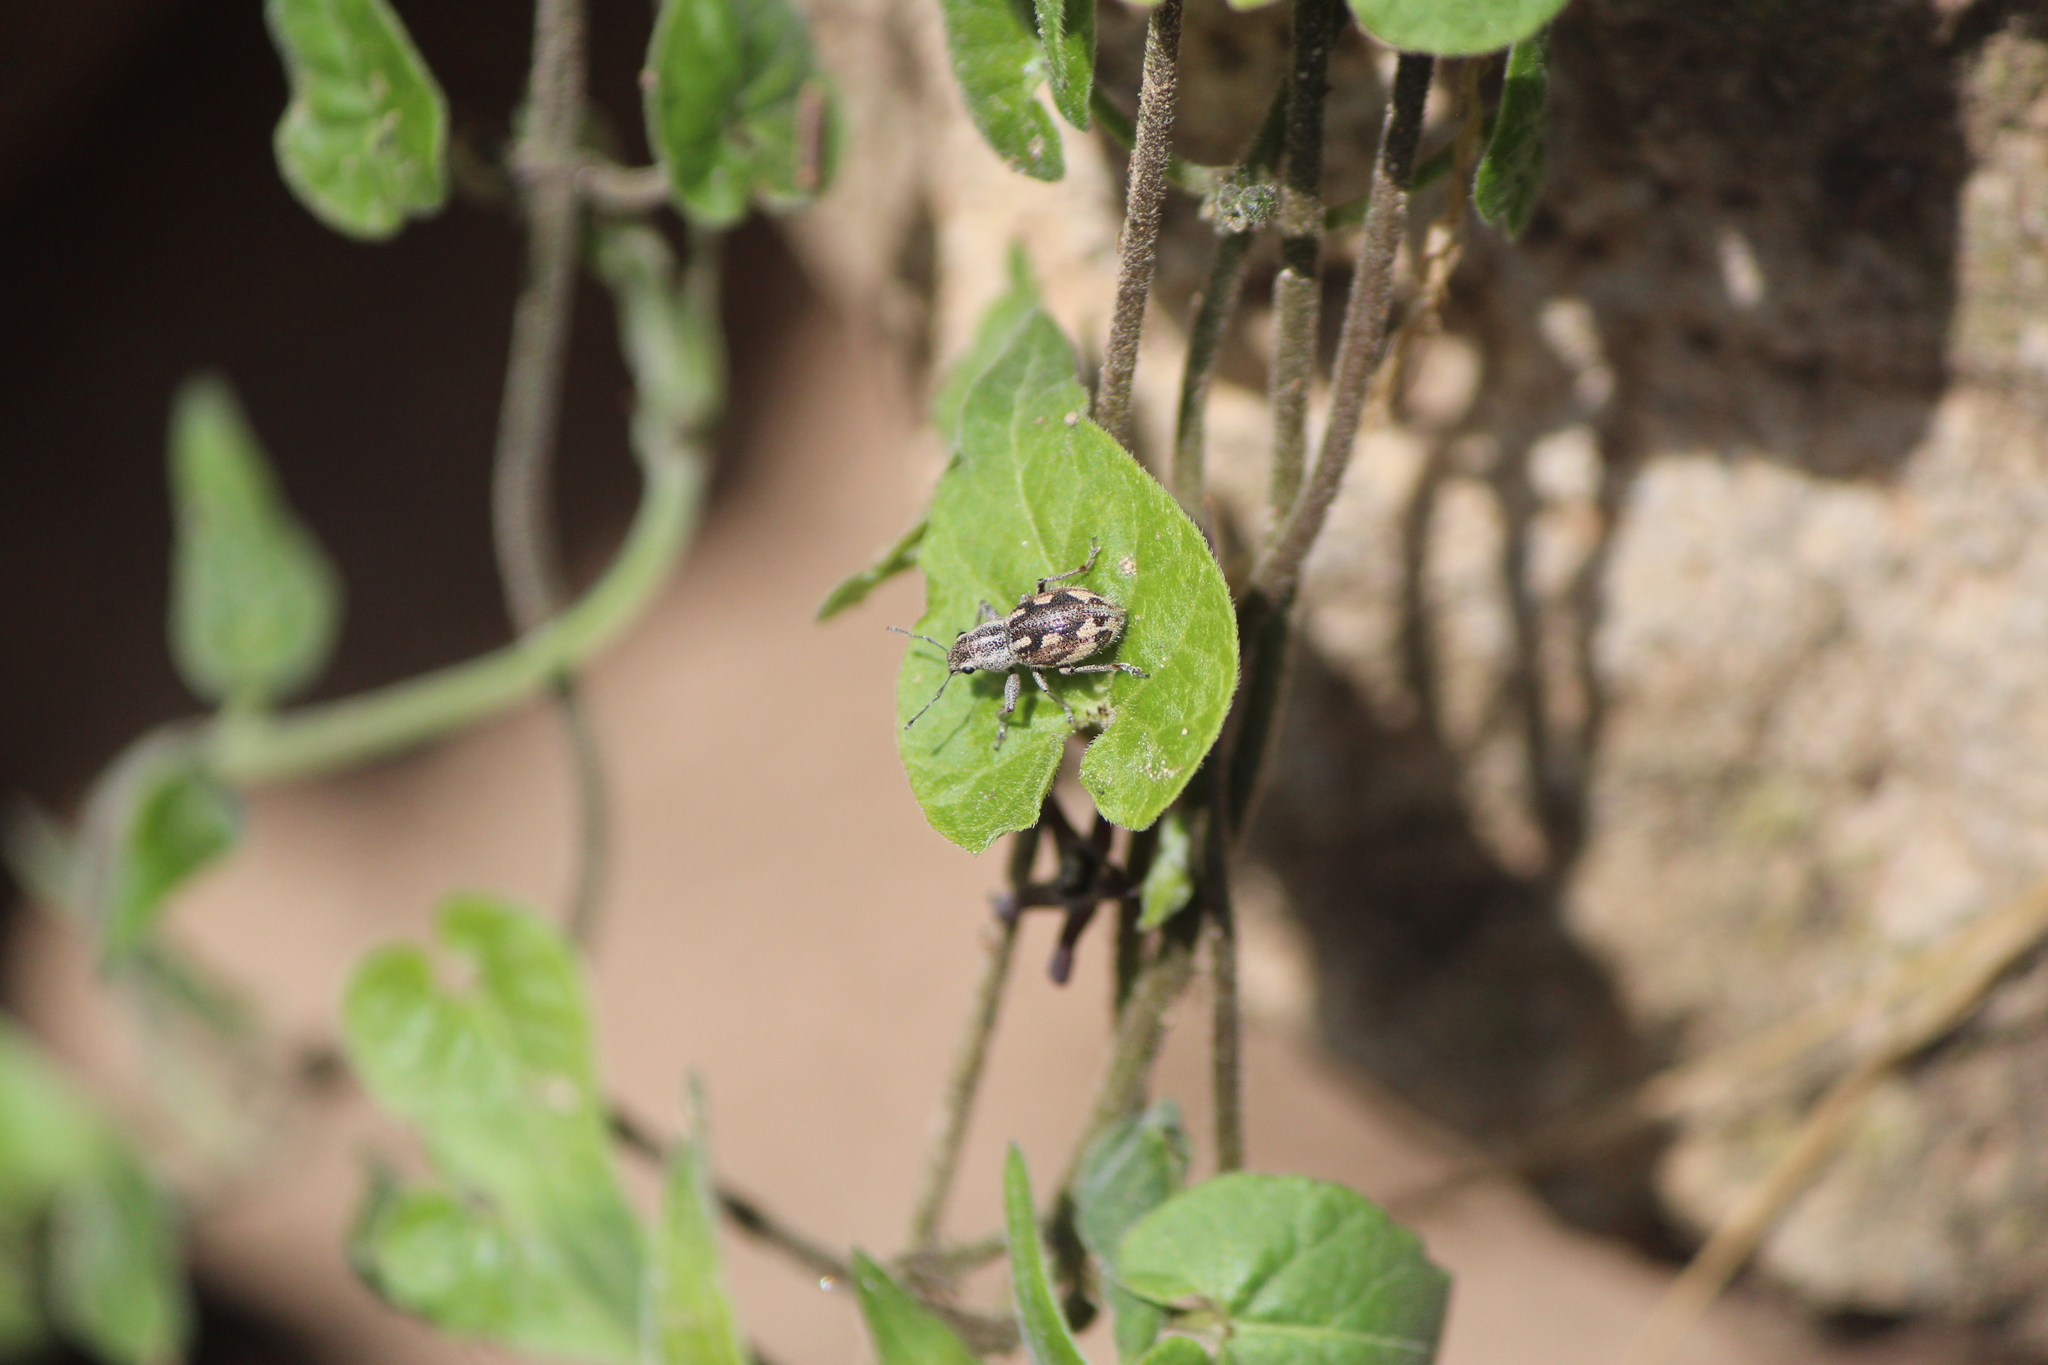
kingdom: Animalia
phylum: Arthropoda
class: Insecta
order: Coleoptera
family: Curculionidae
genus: Pantomorus
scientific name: Pantomorus albosignatus
